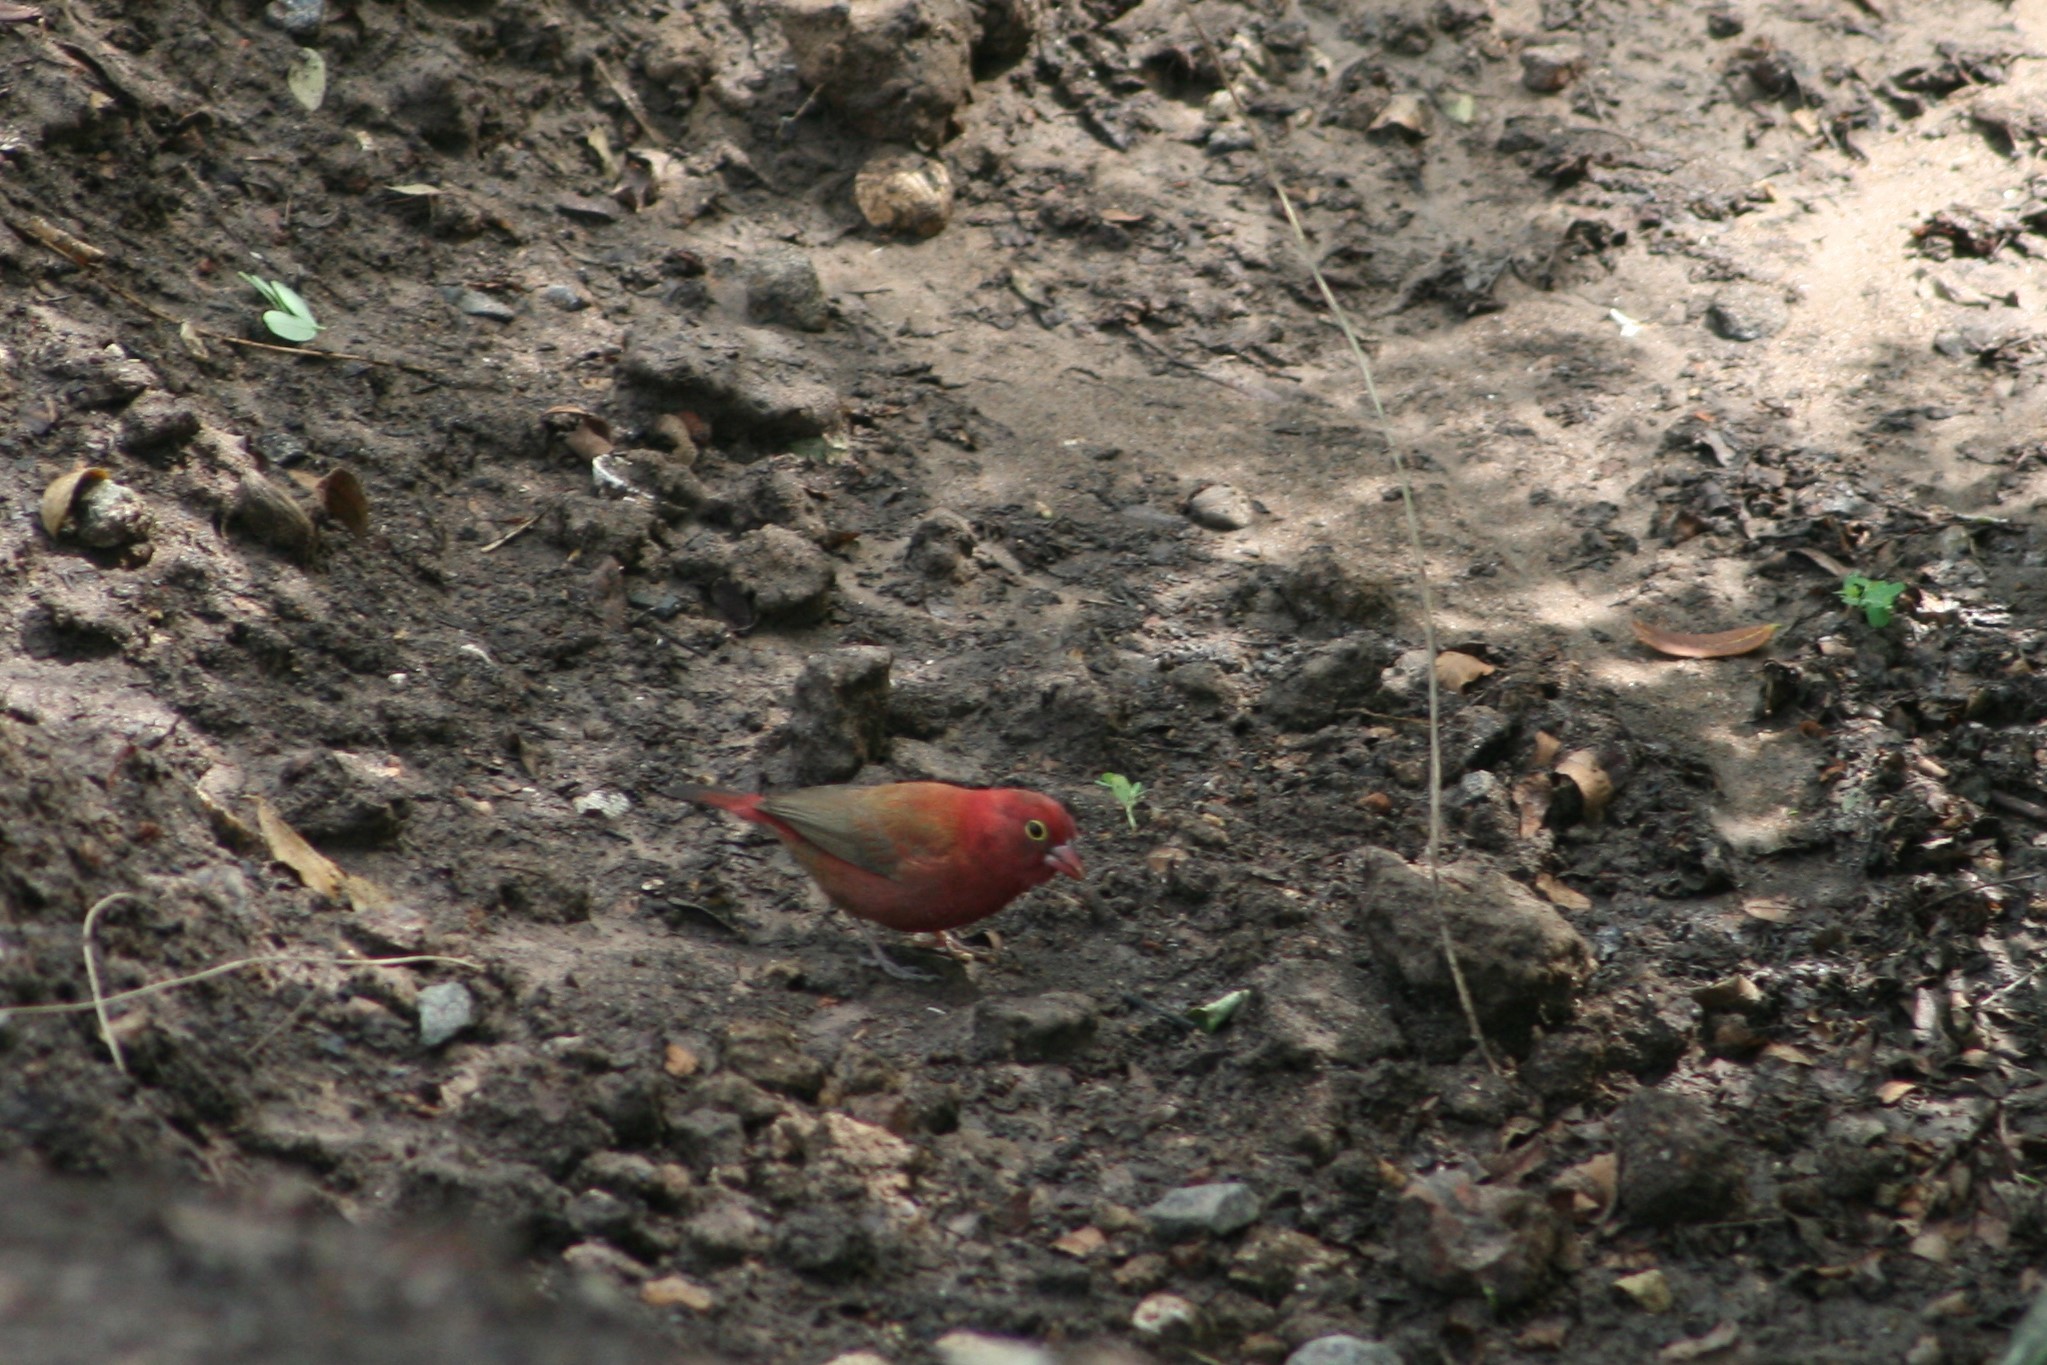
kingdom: Animalia
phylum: Chordata
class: Aves
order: Passeriformes
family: Estrildidae
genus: Lagonosticta
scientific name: Lagonosticta senegala
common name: Red-billed firefinch
